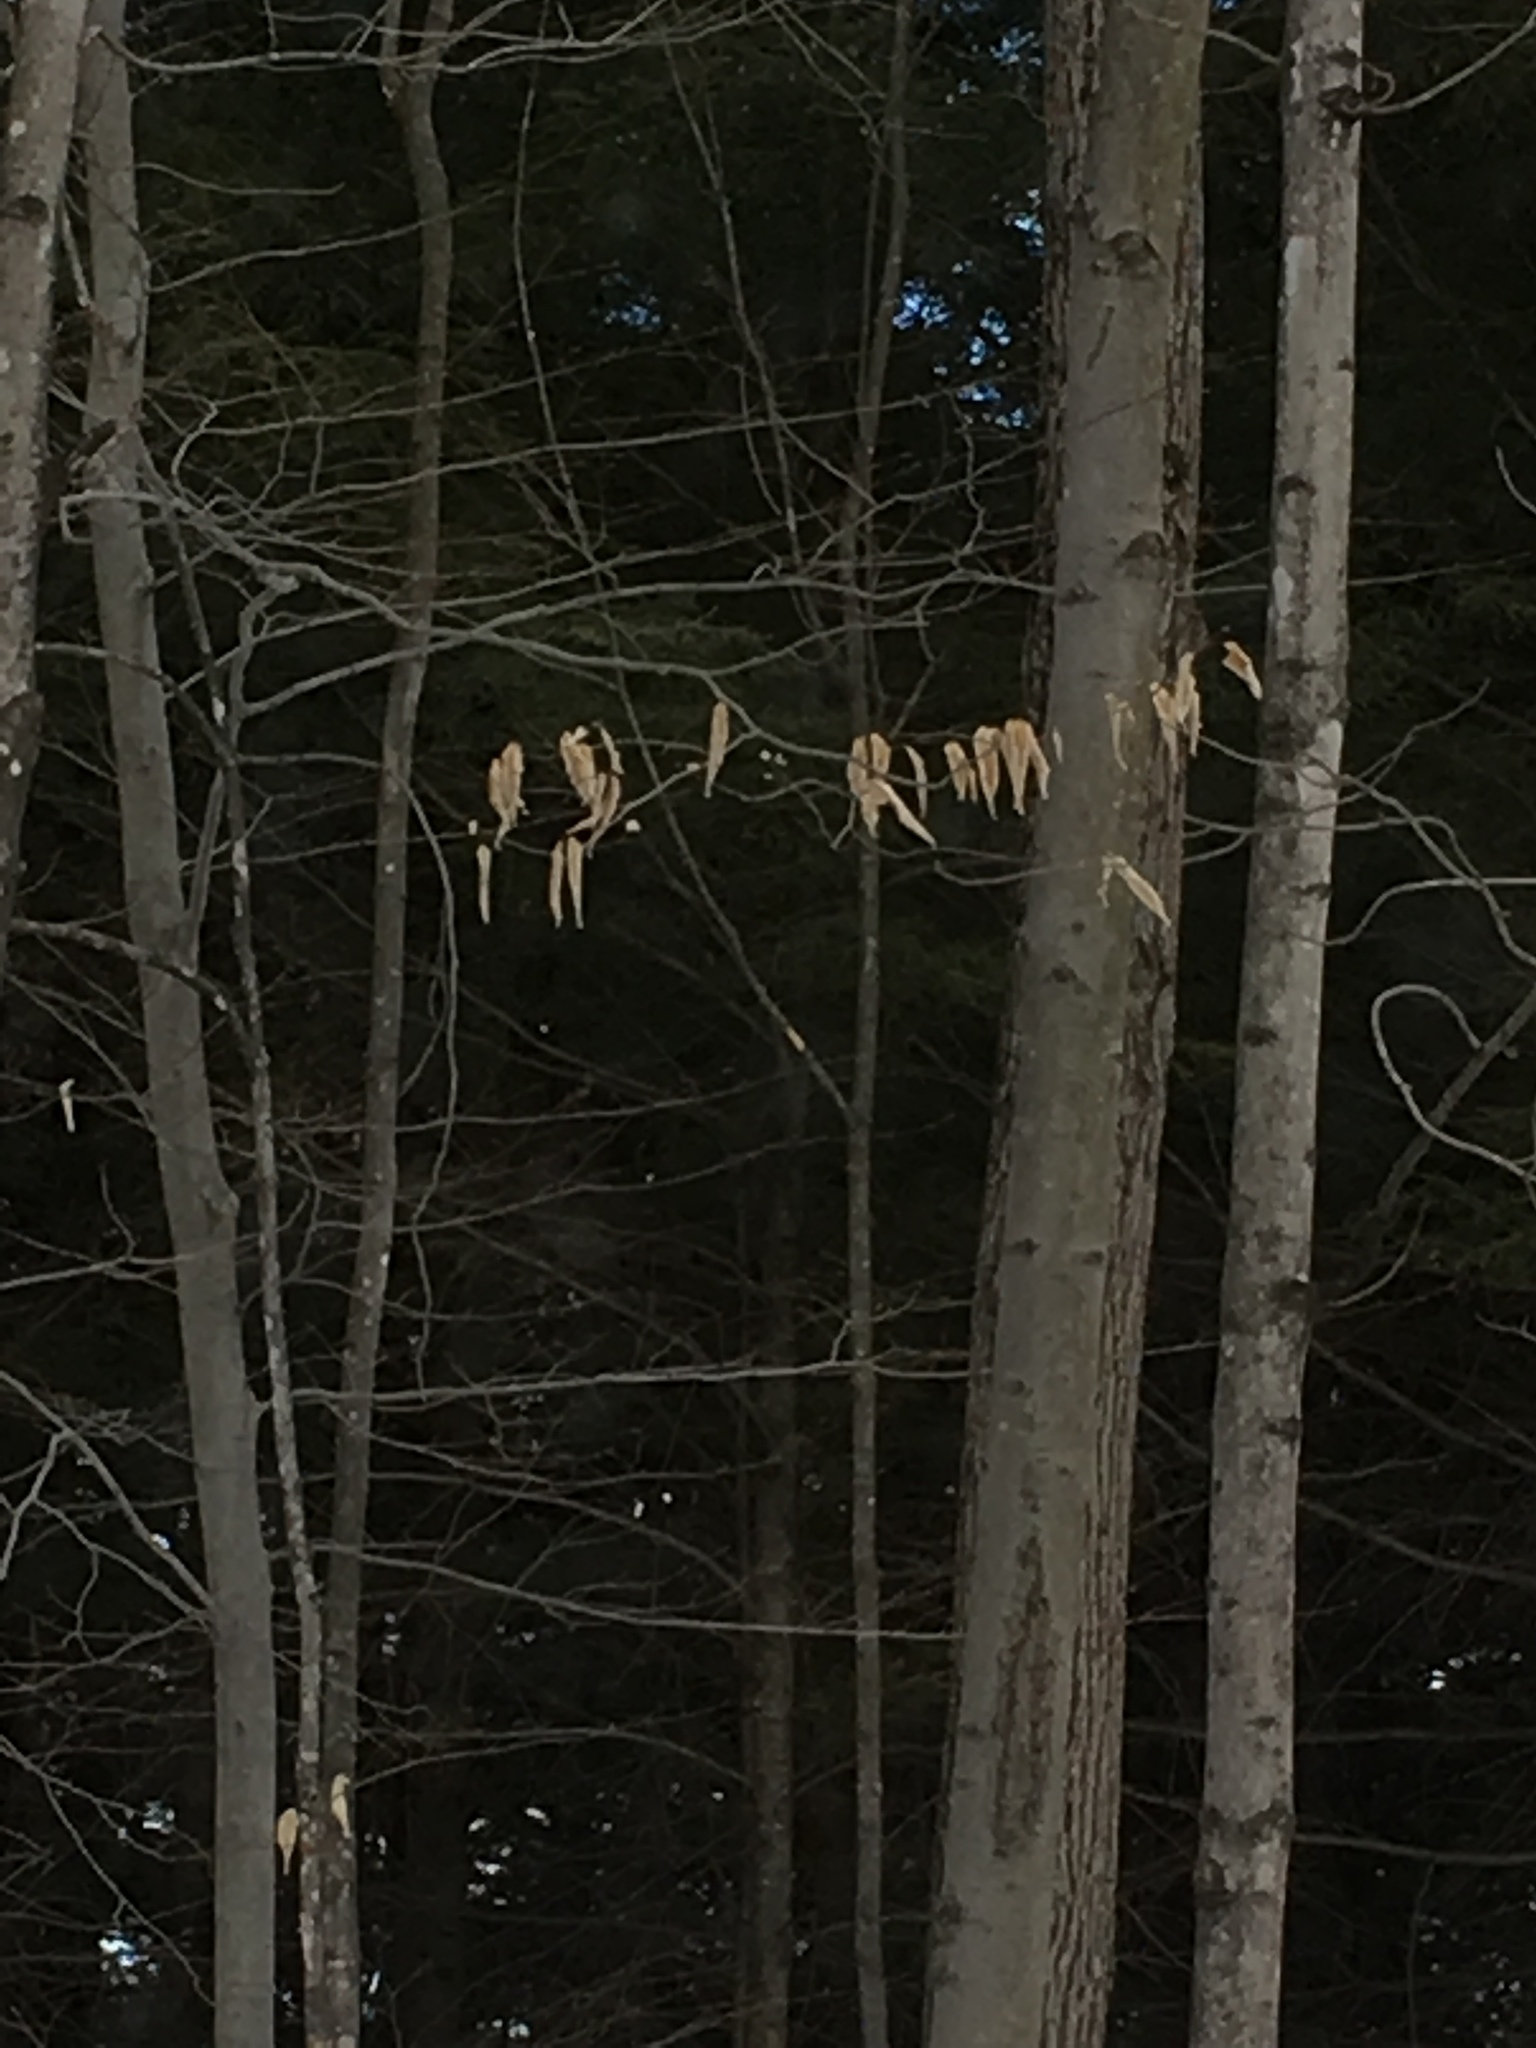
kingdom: Plantae
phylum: Tracheophyta
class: Magnoliopsida
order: Fagales
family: Fagaceae
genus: Fagus
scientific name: Fagus grandifolia
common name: American beech
